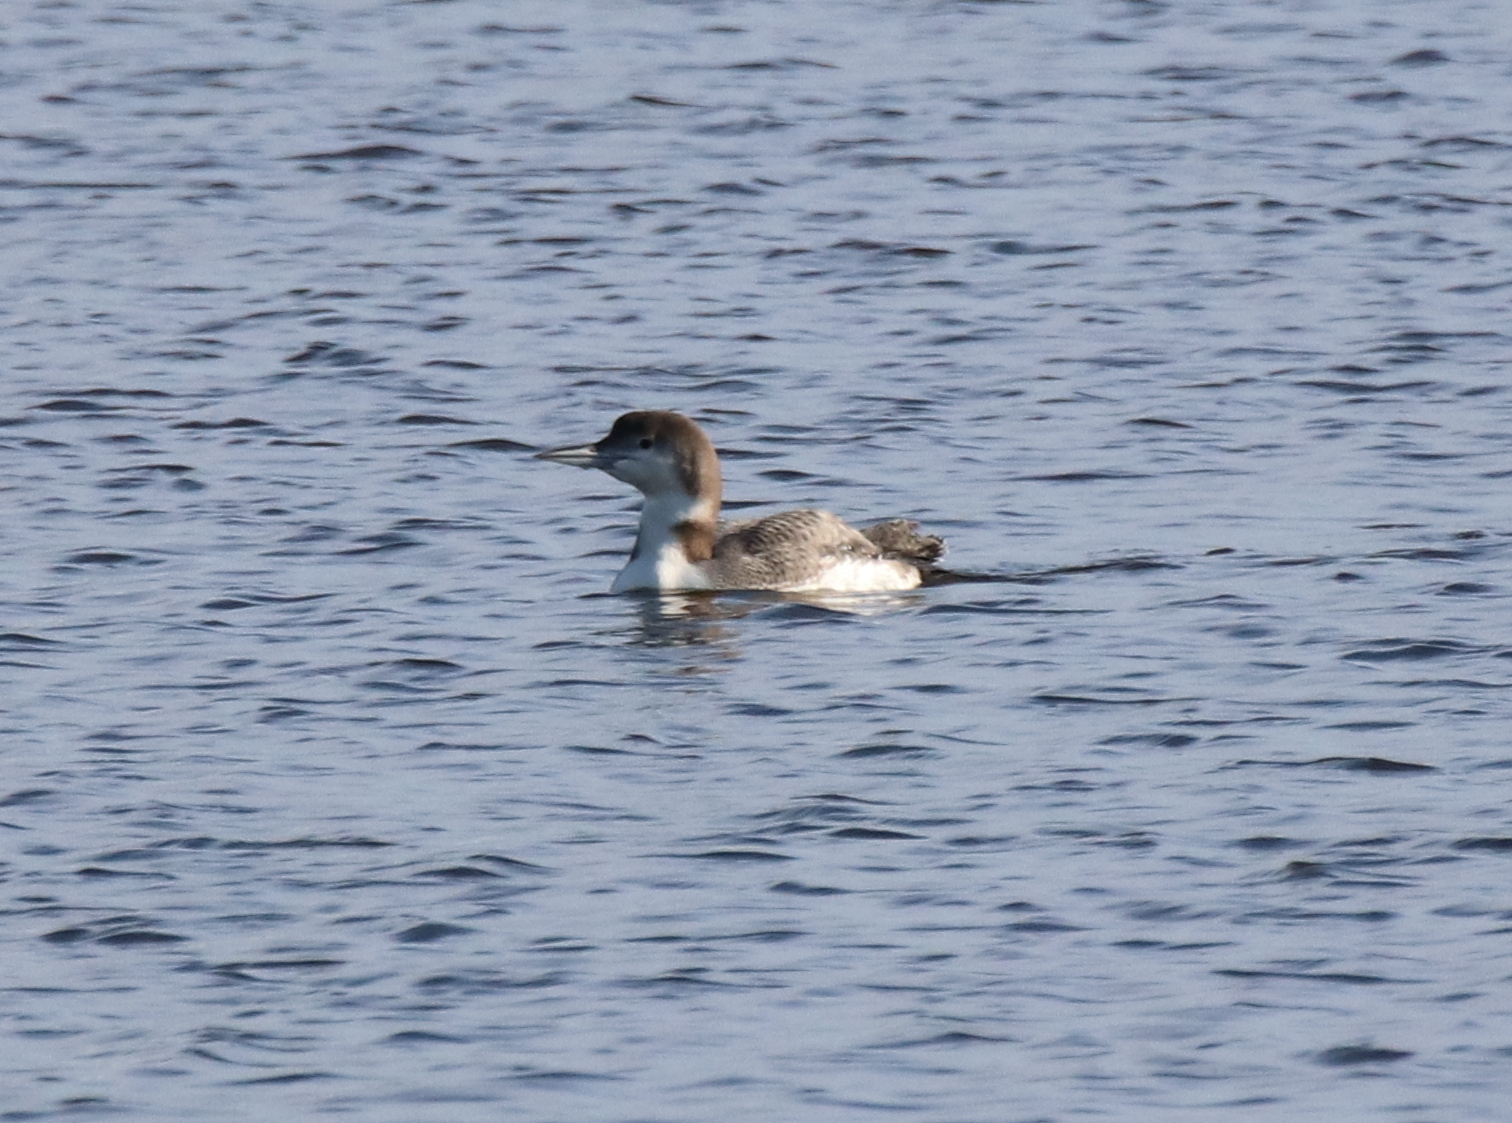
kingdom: Animalia
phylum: Chordata
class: Aves
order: Gaviiformes
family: Gaviidae
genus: Gavia
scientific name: Gavia immer
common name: Common loon
